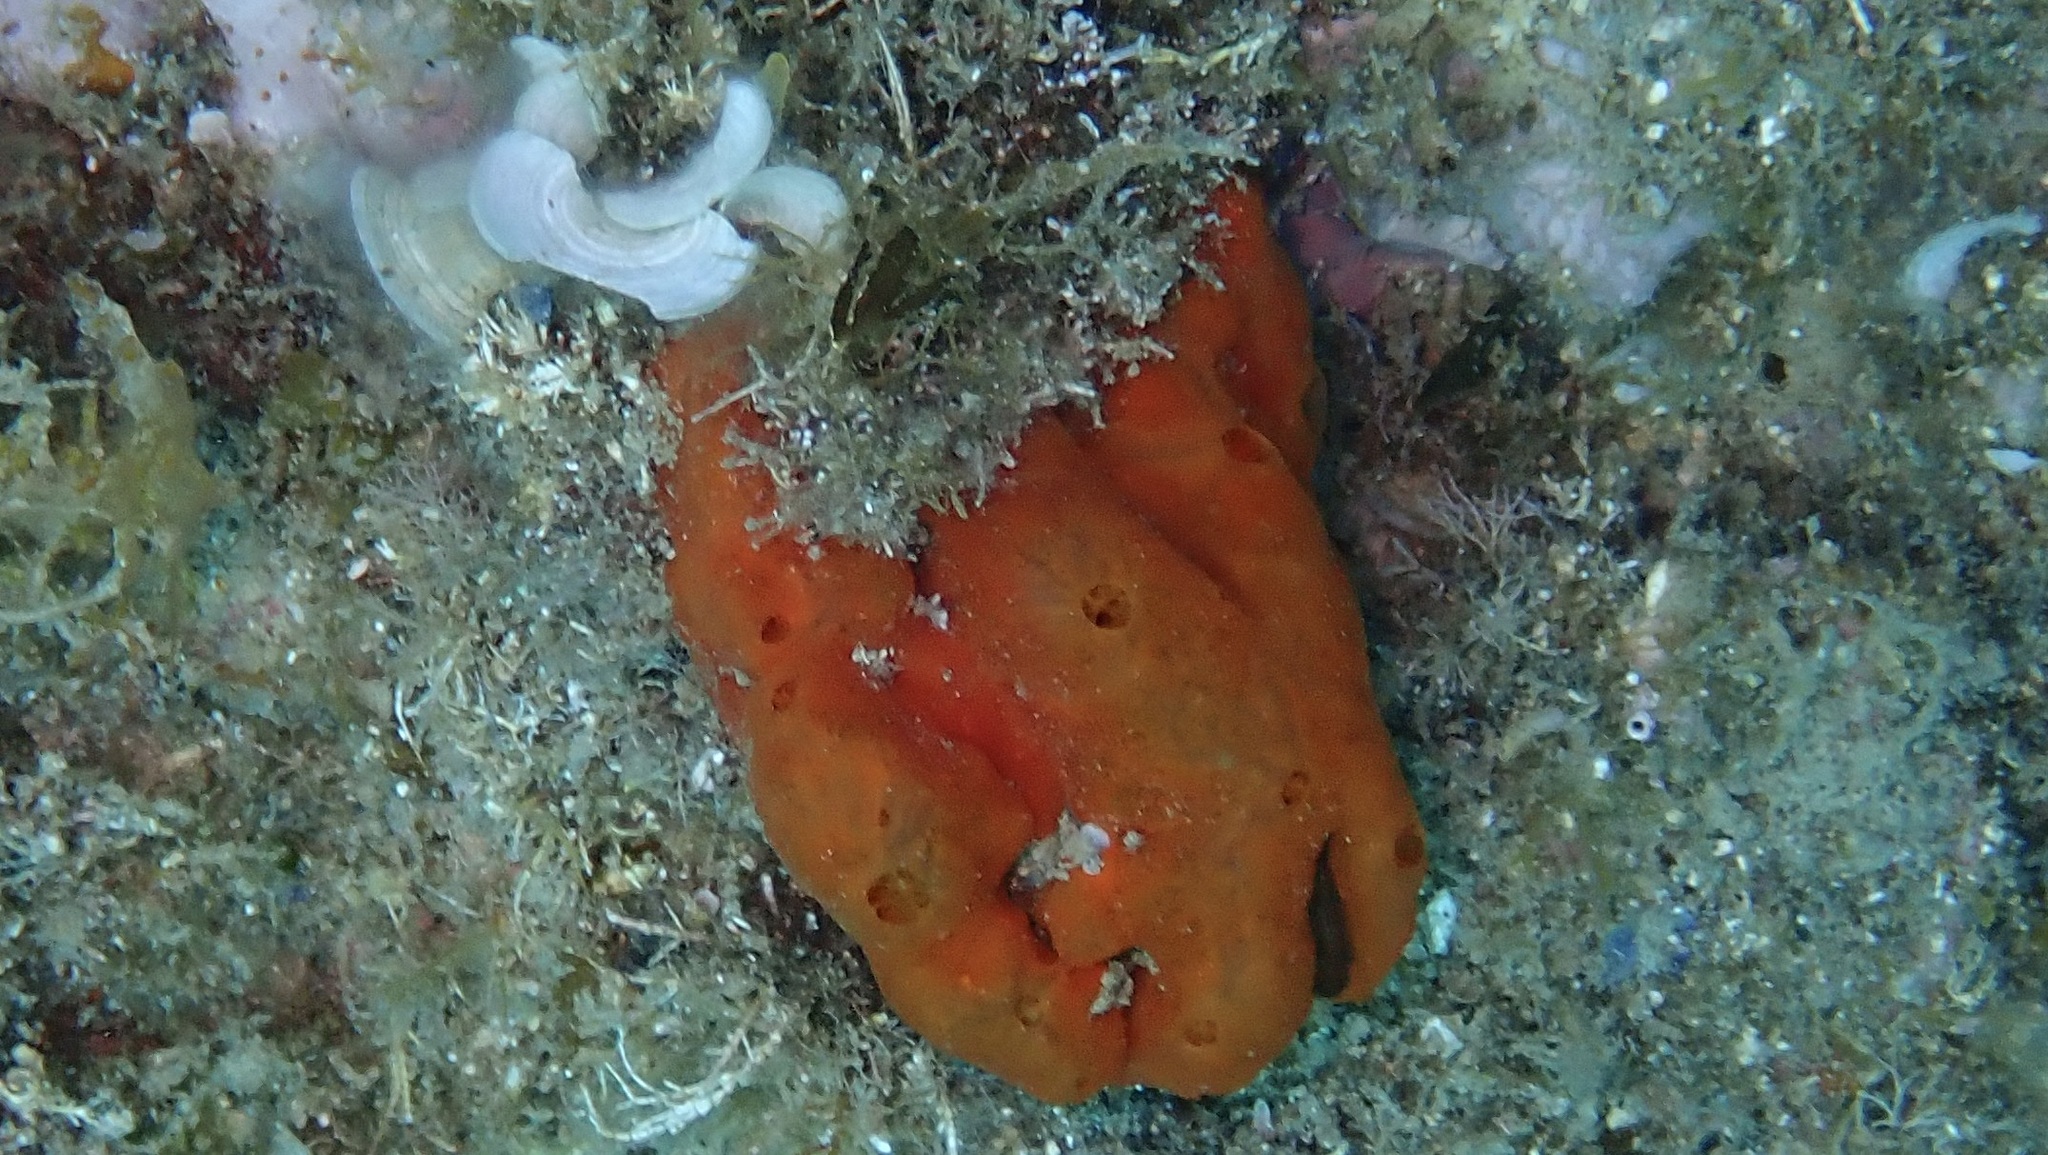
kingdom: Animalia
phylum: Porifera
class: Demospongiae
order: Poecilosclerida
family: Crambeidae
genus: Crambe
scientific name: Crambe crambe
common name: Orange-red encrusting sponge
